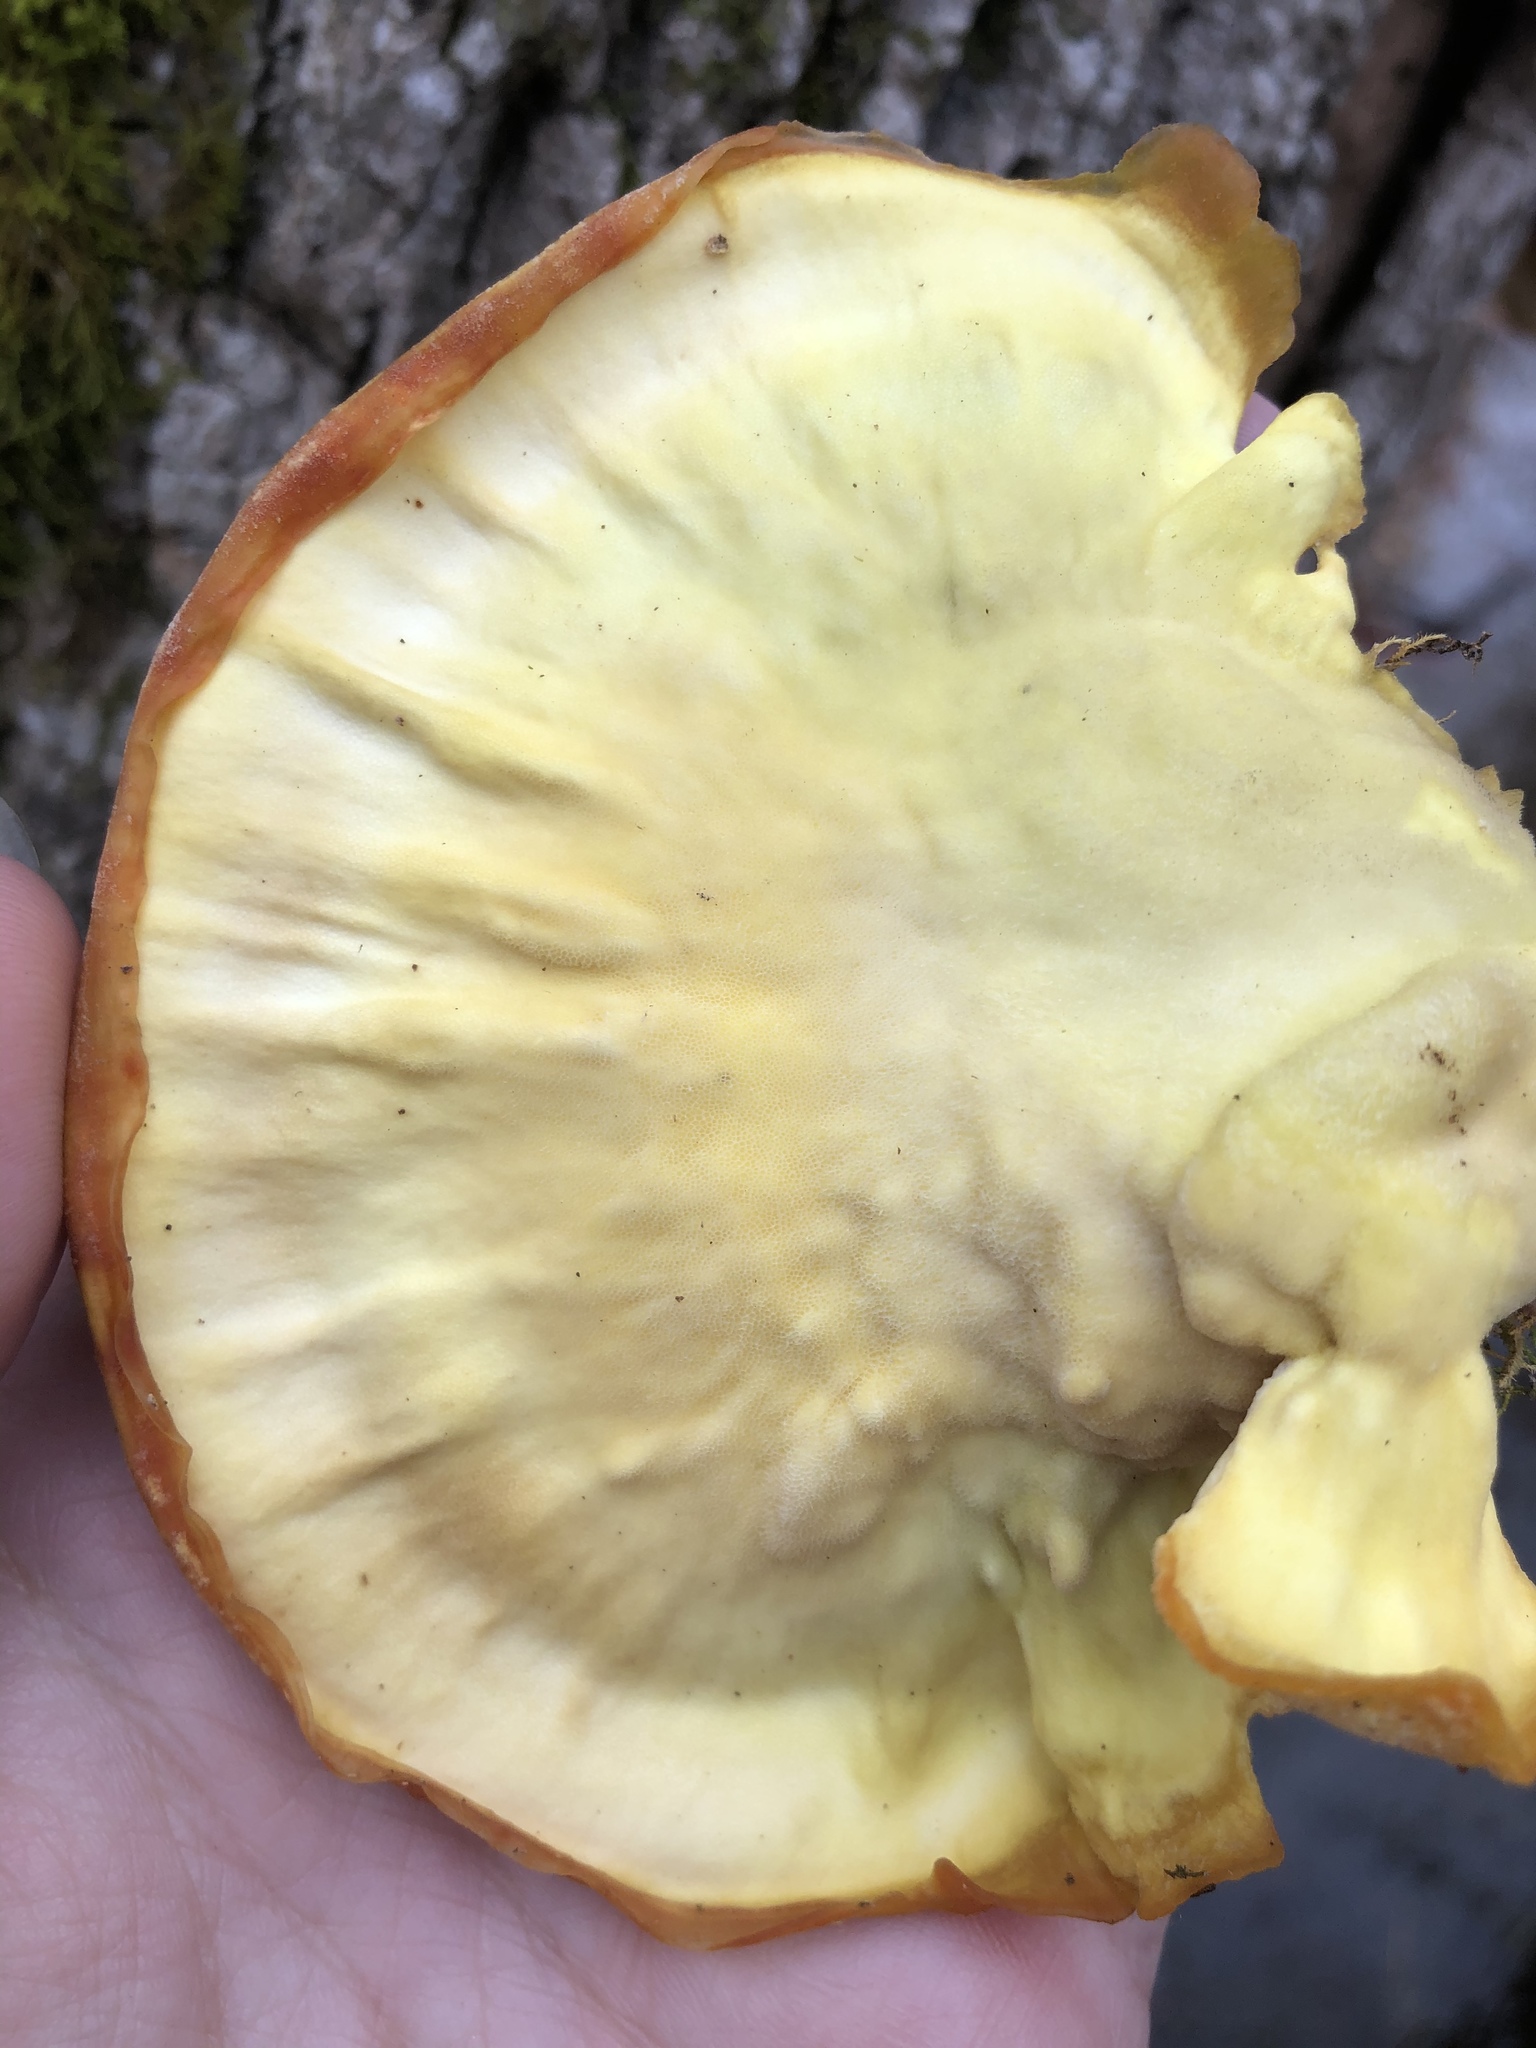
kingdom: Fungi
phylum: Basidiomycota
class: Agaricomycetes
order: Polyporales
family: Laetiporaceae
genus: Laetiporus
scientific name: Laetiporus sulphureus
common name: Chicken of the woods
